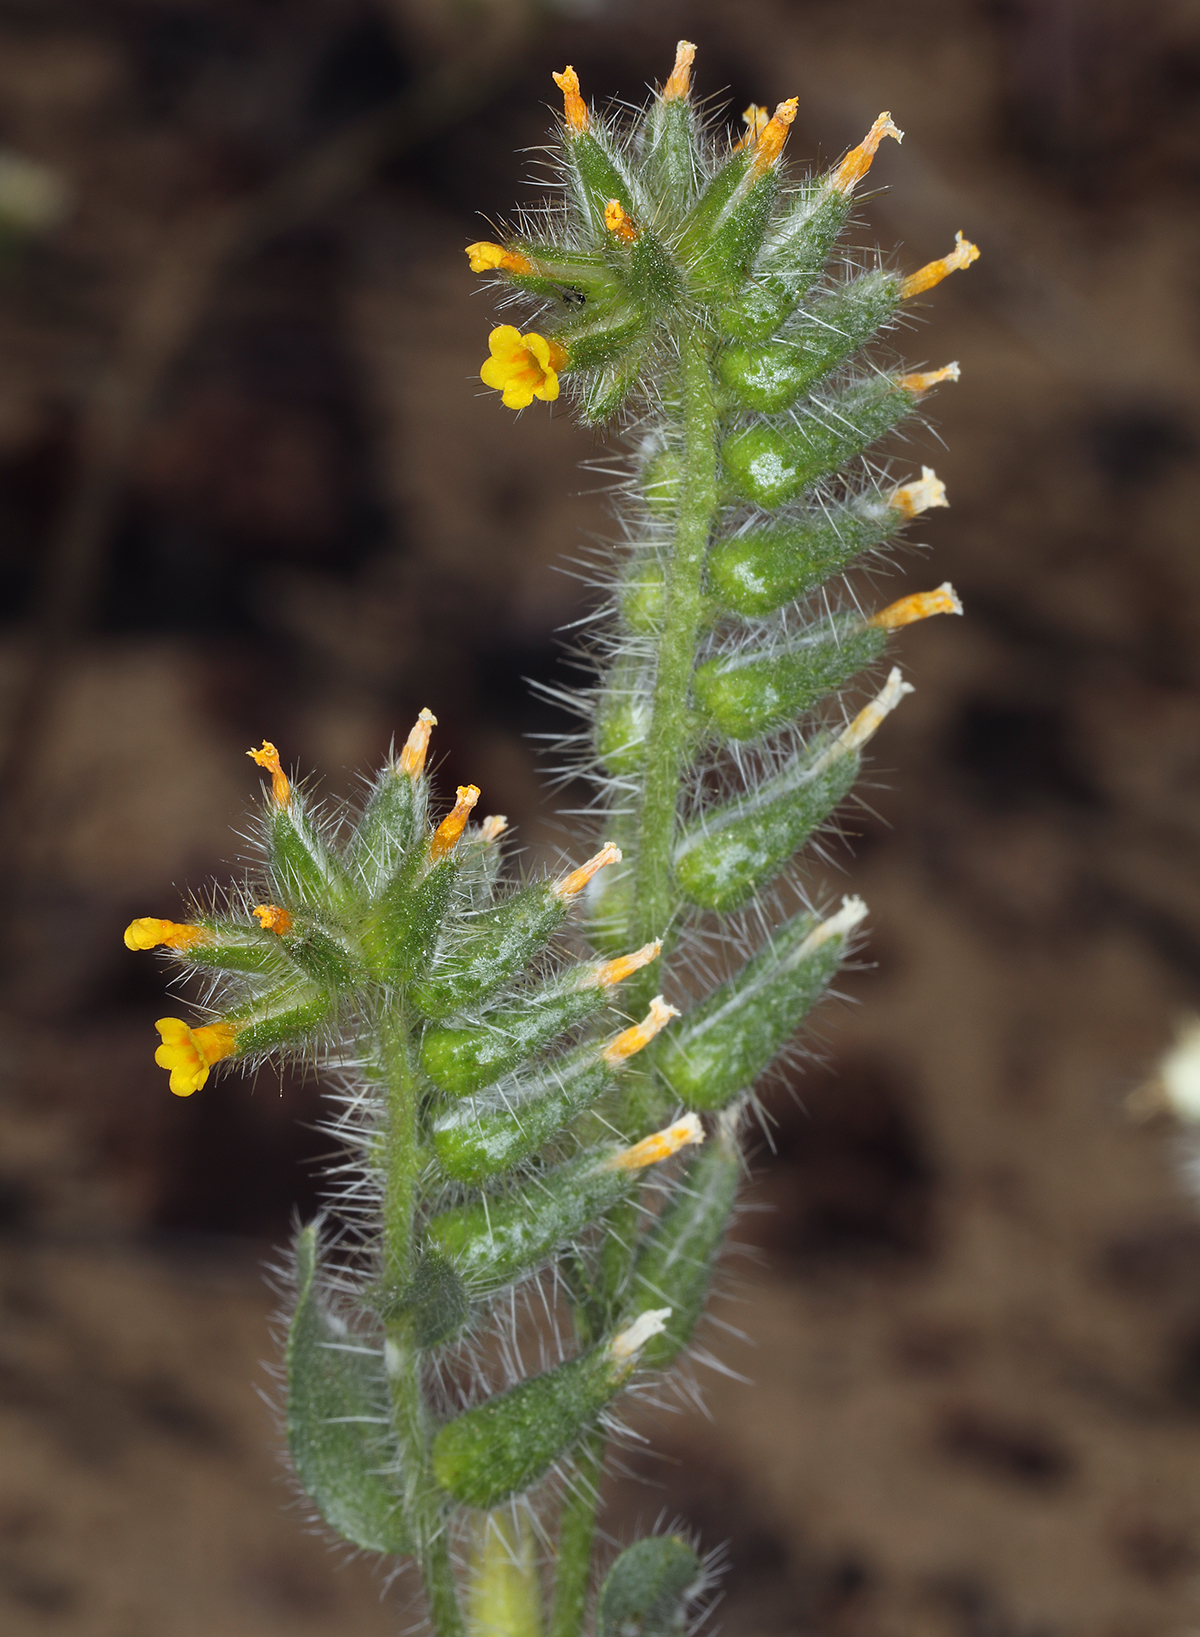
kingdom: Plantae
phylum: Tracheophyta
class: Magnoliopsida
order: Boraginales
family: Boraginaceae
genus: Amsinckia
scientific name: Amsinckia tessellata
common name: Tessellate fiddleneck
